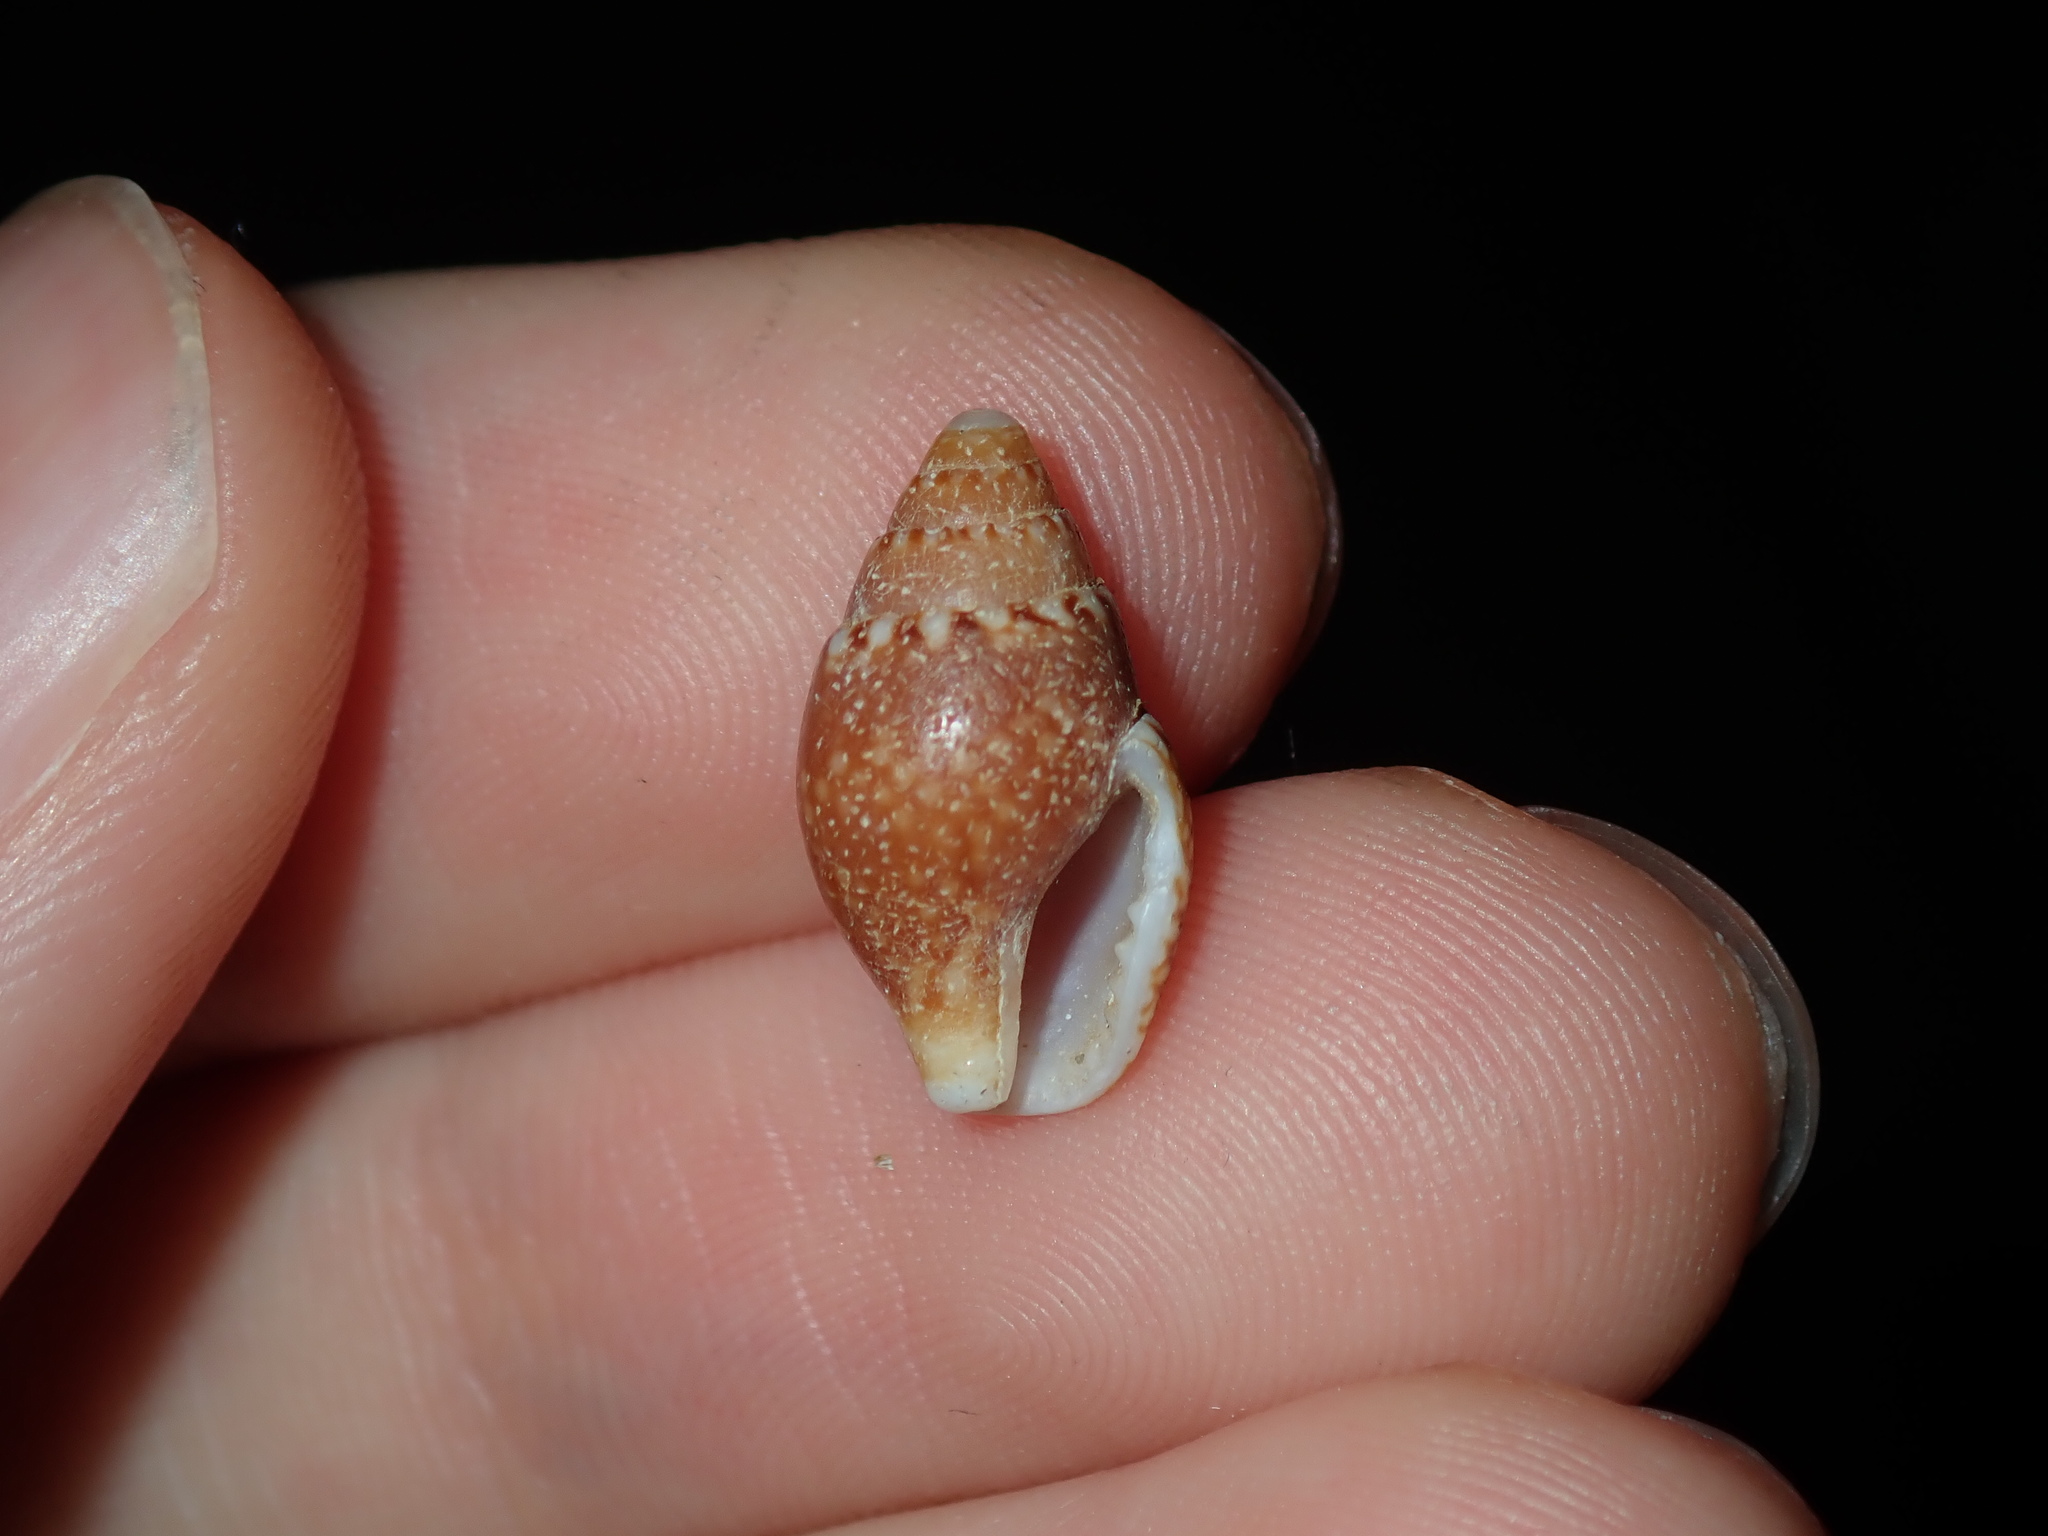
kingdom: Animalia
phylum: Mollusca
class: Gastropoda
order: Neogastropoda
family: Columbellidae
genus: Pardalinops de
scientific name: Pardalinops de Pardalinops testudinaria
